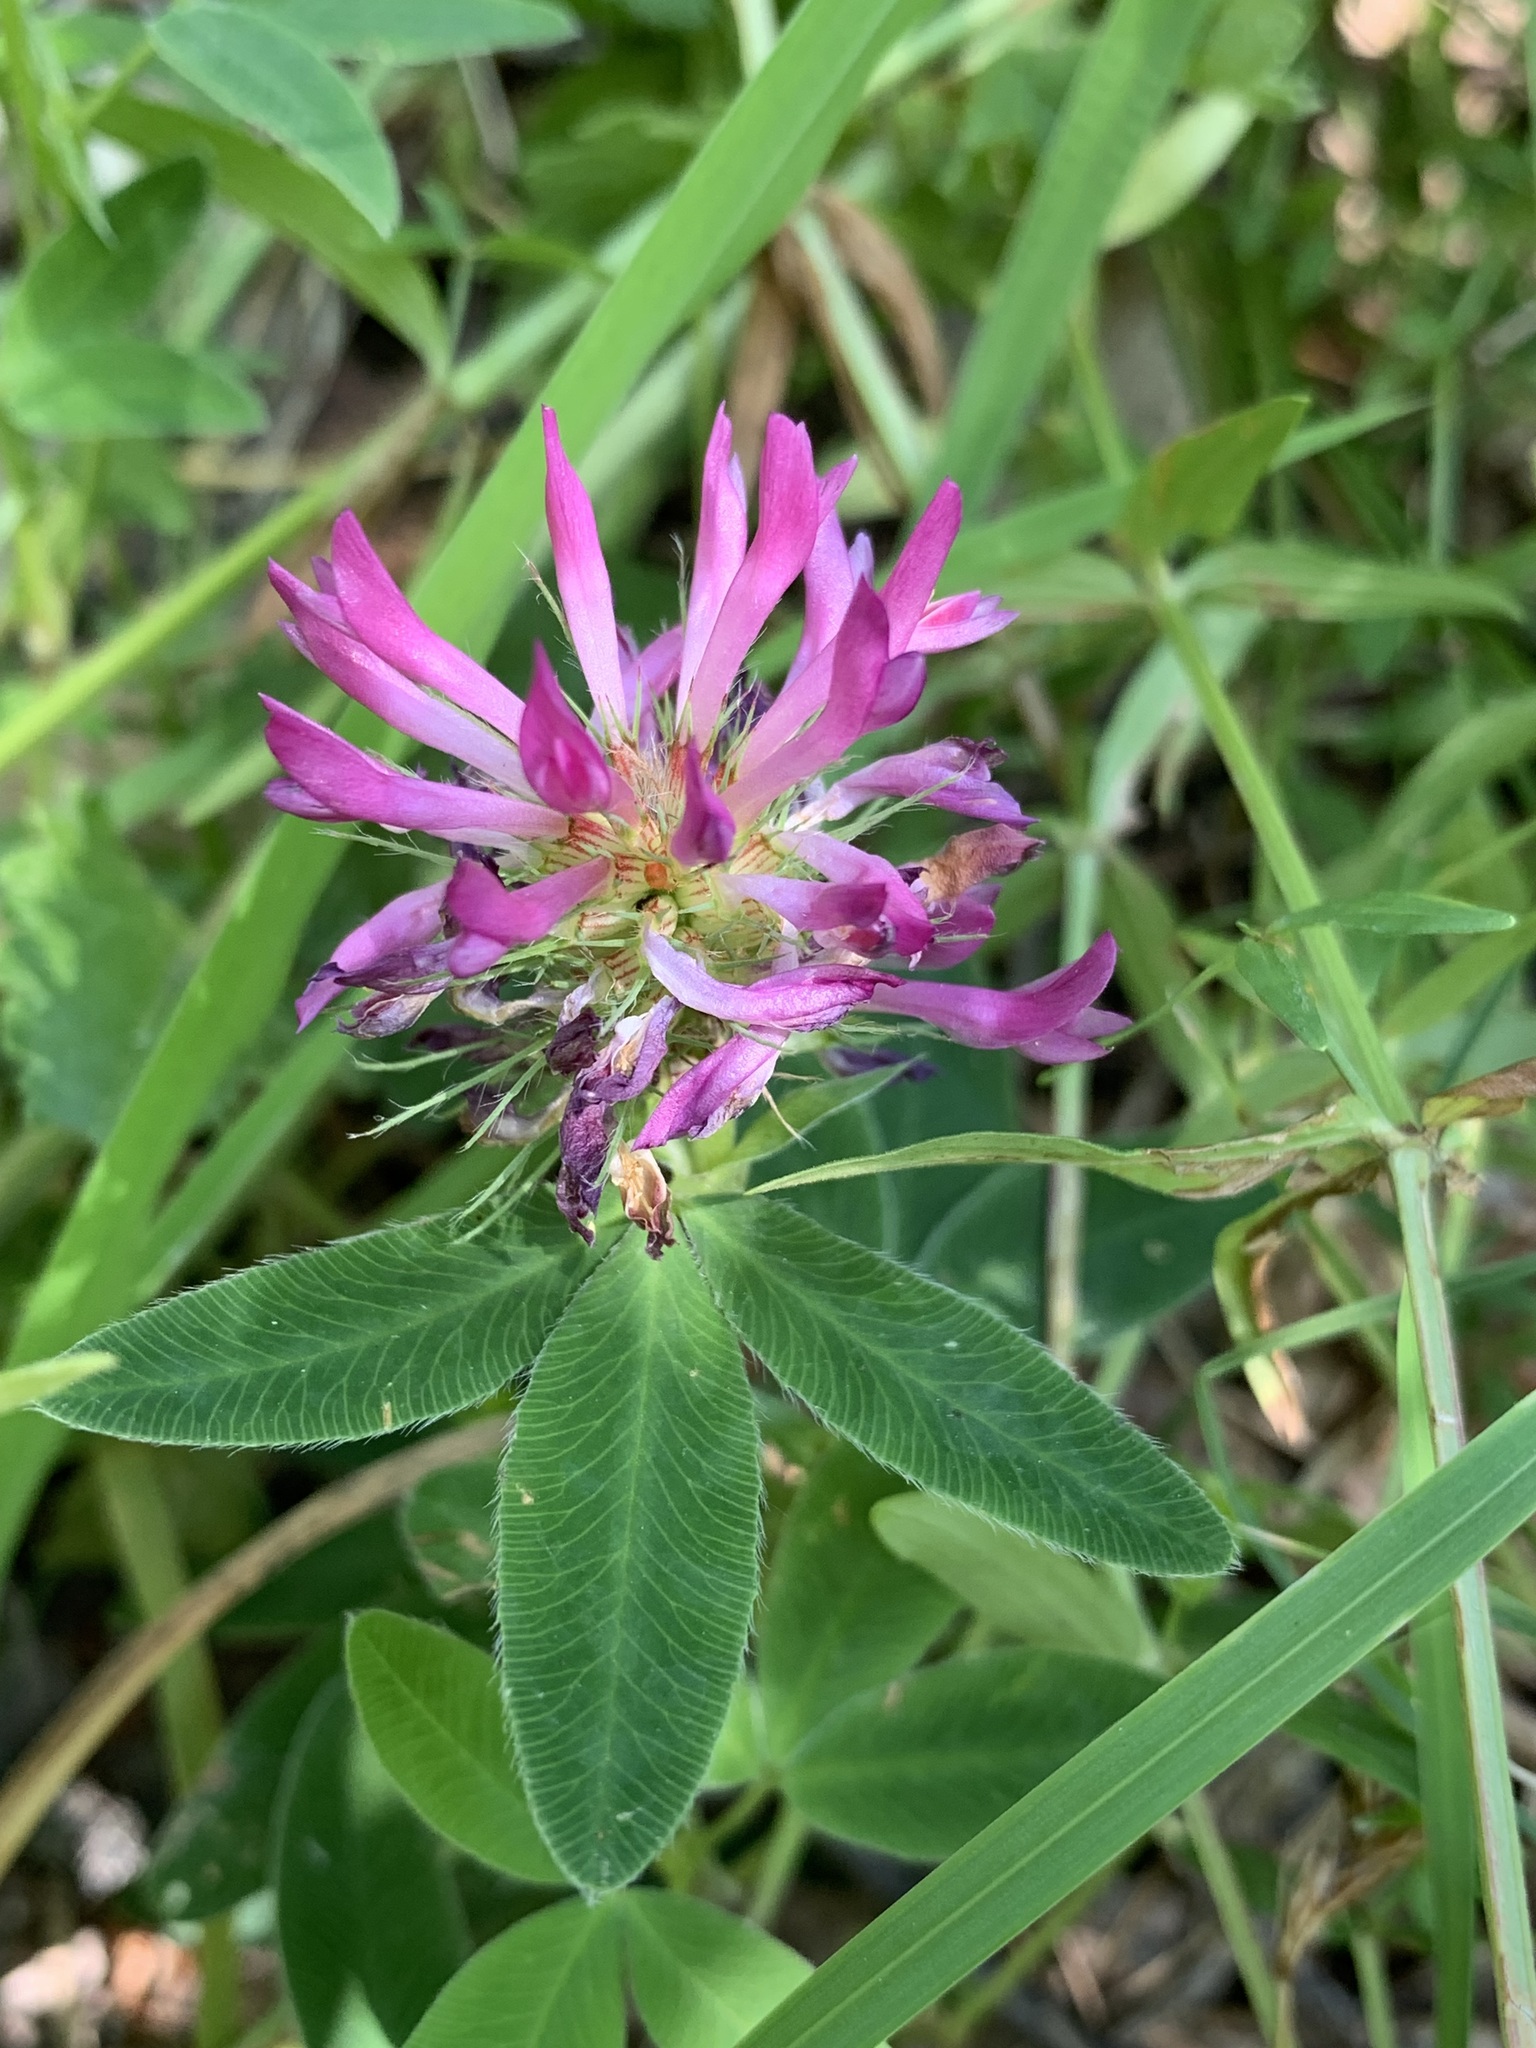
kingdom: Plantae
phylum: Tracheophyta
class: Magnoliopsida
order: Fabales
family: Fabaceae
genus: Trifolium
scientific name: Trifolium medium
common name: Zigzag clover
